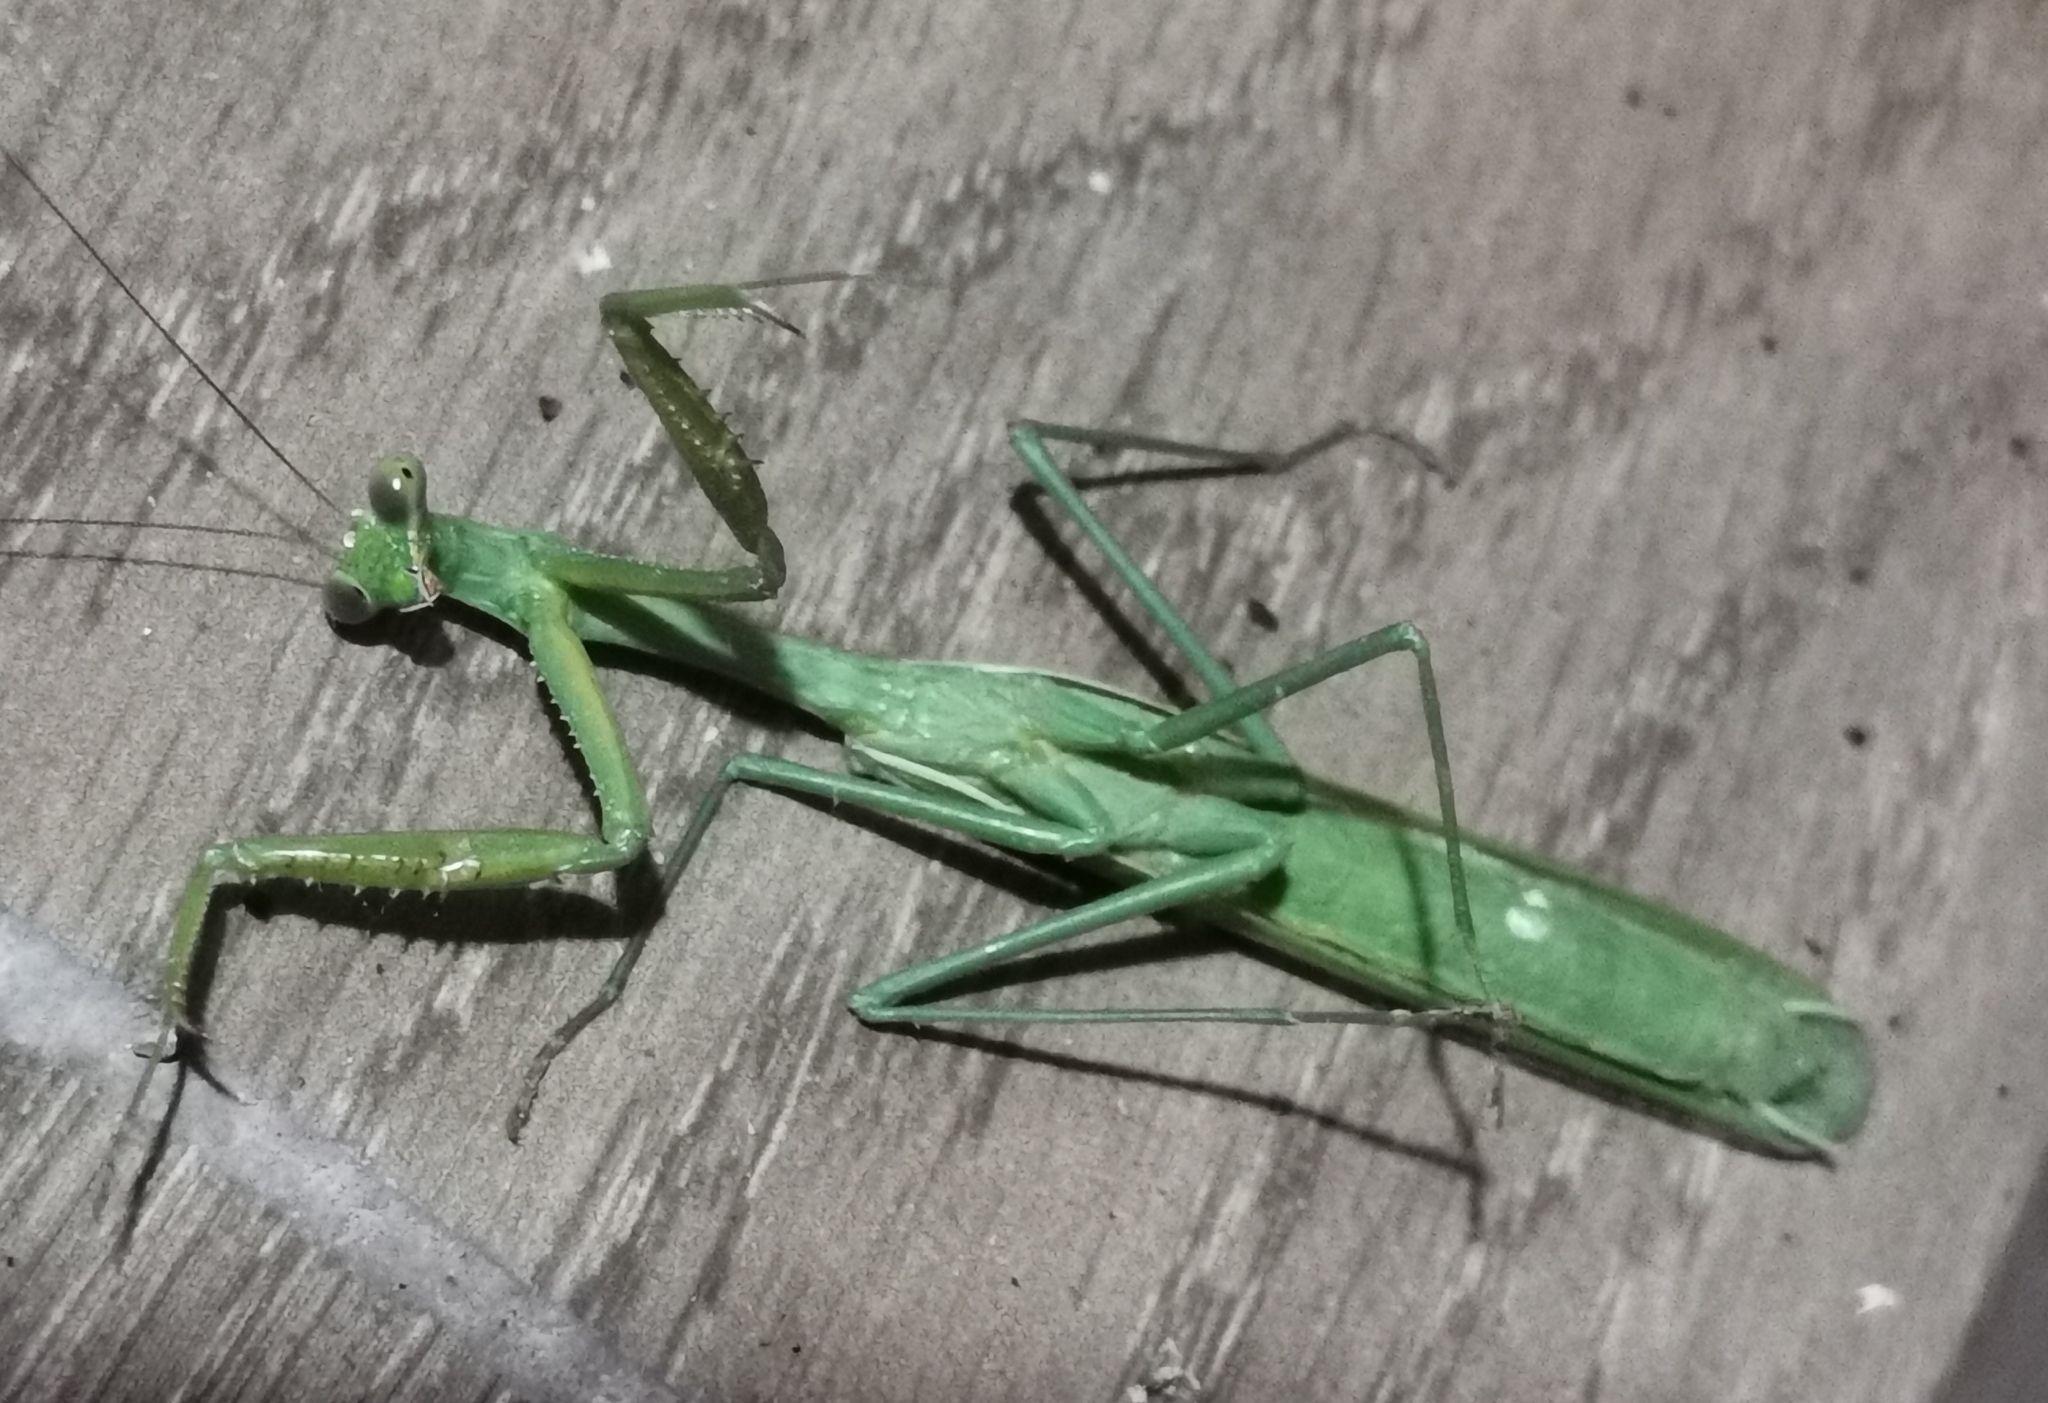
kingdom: Animalia
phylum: Arthropoda
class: Insecta
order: Mantodea
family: Mantidae
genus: Stagmomantis
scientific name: Stagmomantis limbata
